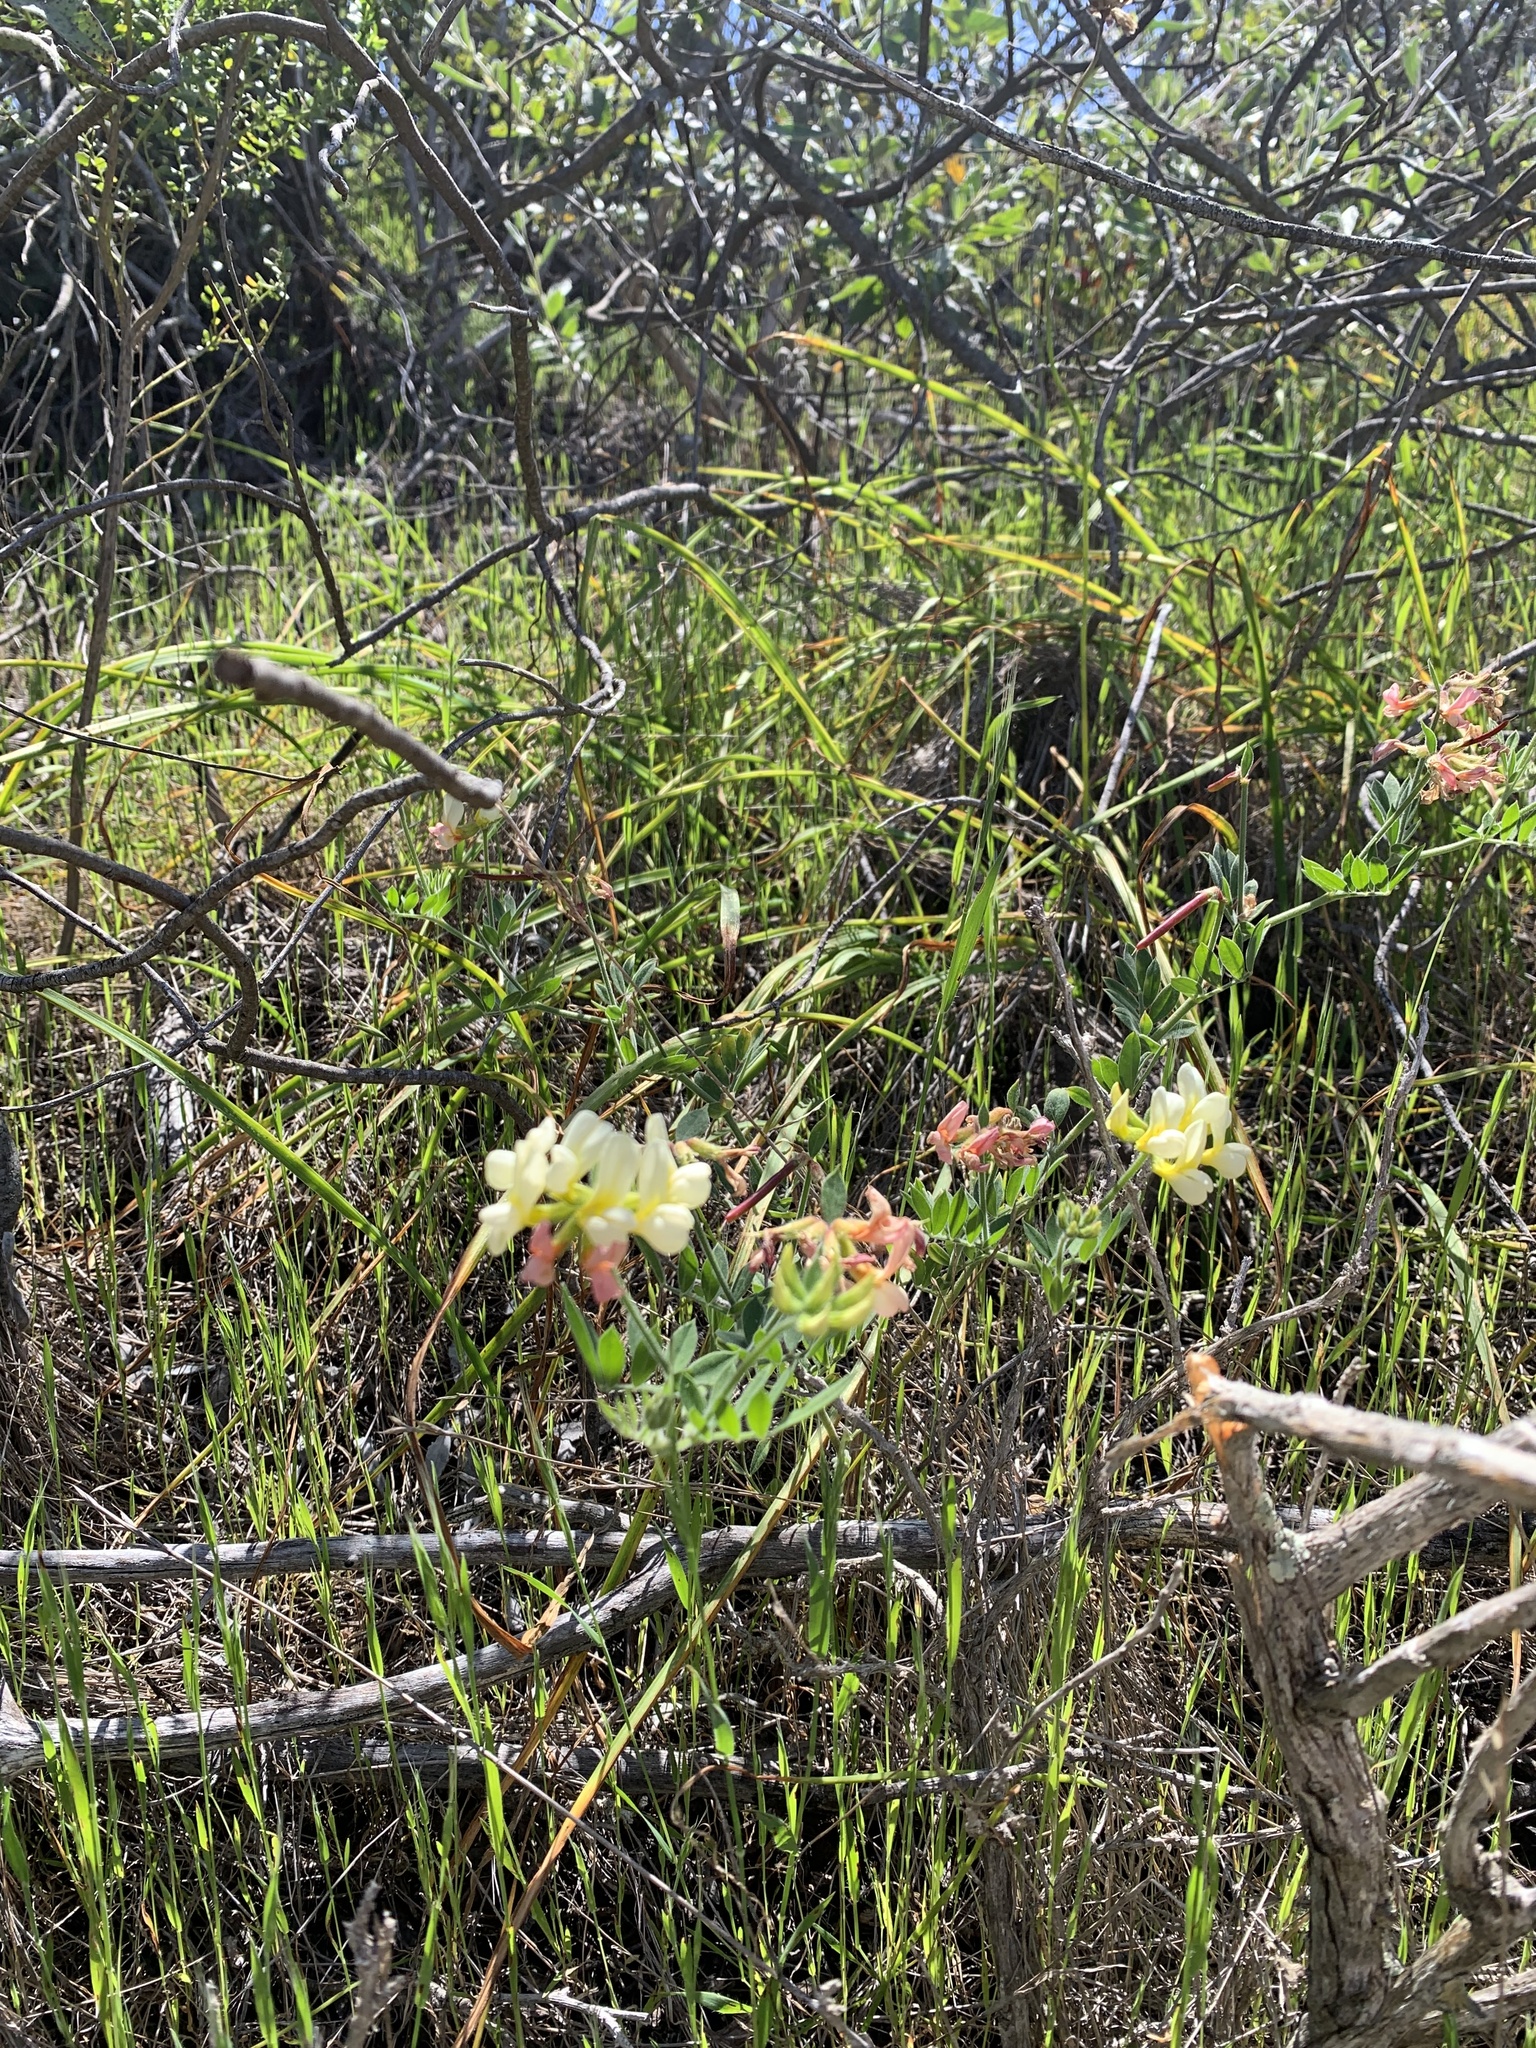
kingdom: Plantae
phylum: Tracheophyta
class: Magnoliopsida
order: Fabales
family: Fabaceae
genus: Acmispon
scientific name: Acmispon grandiflorus
